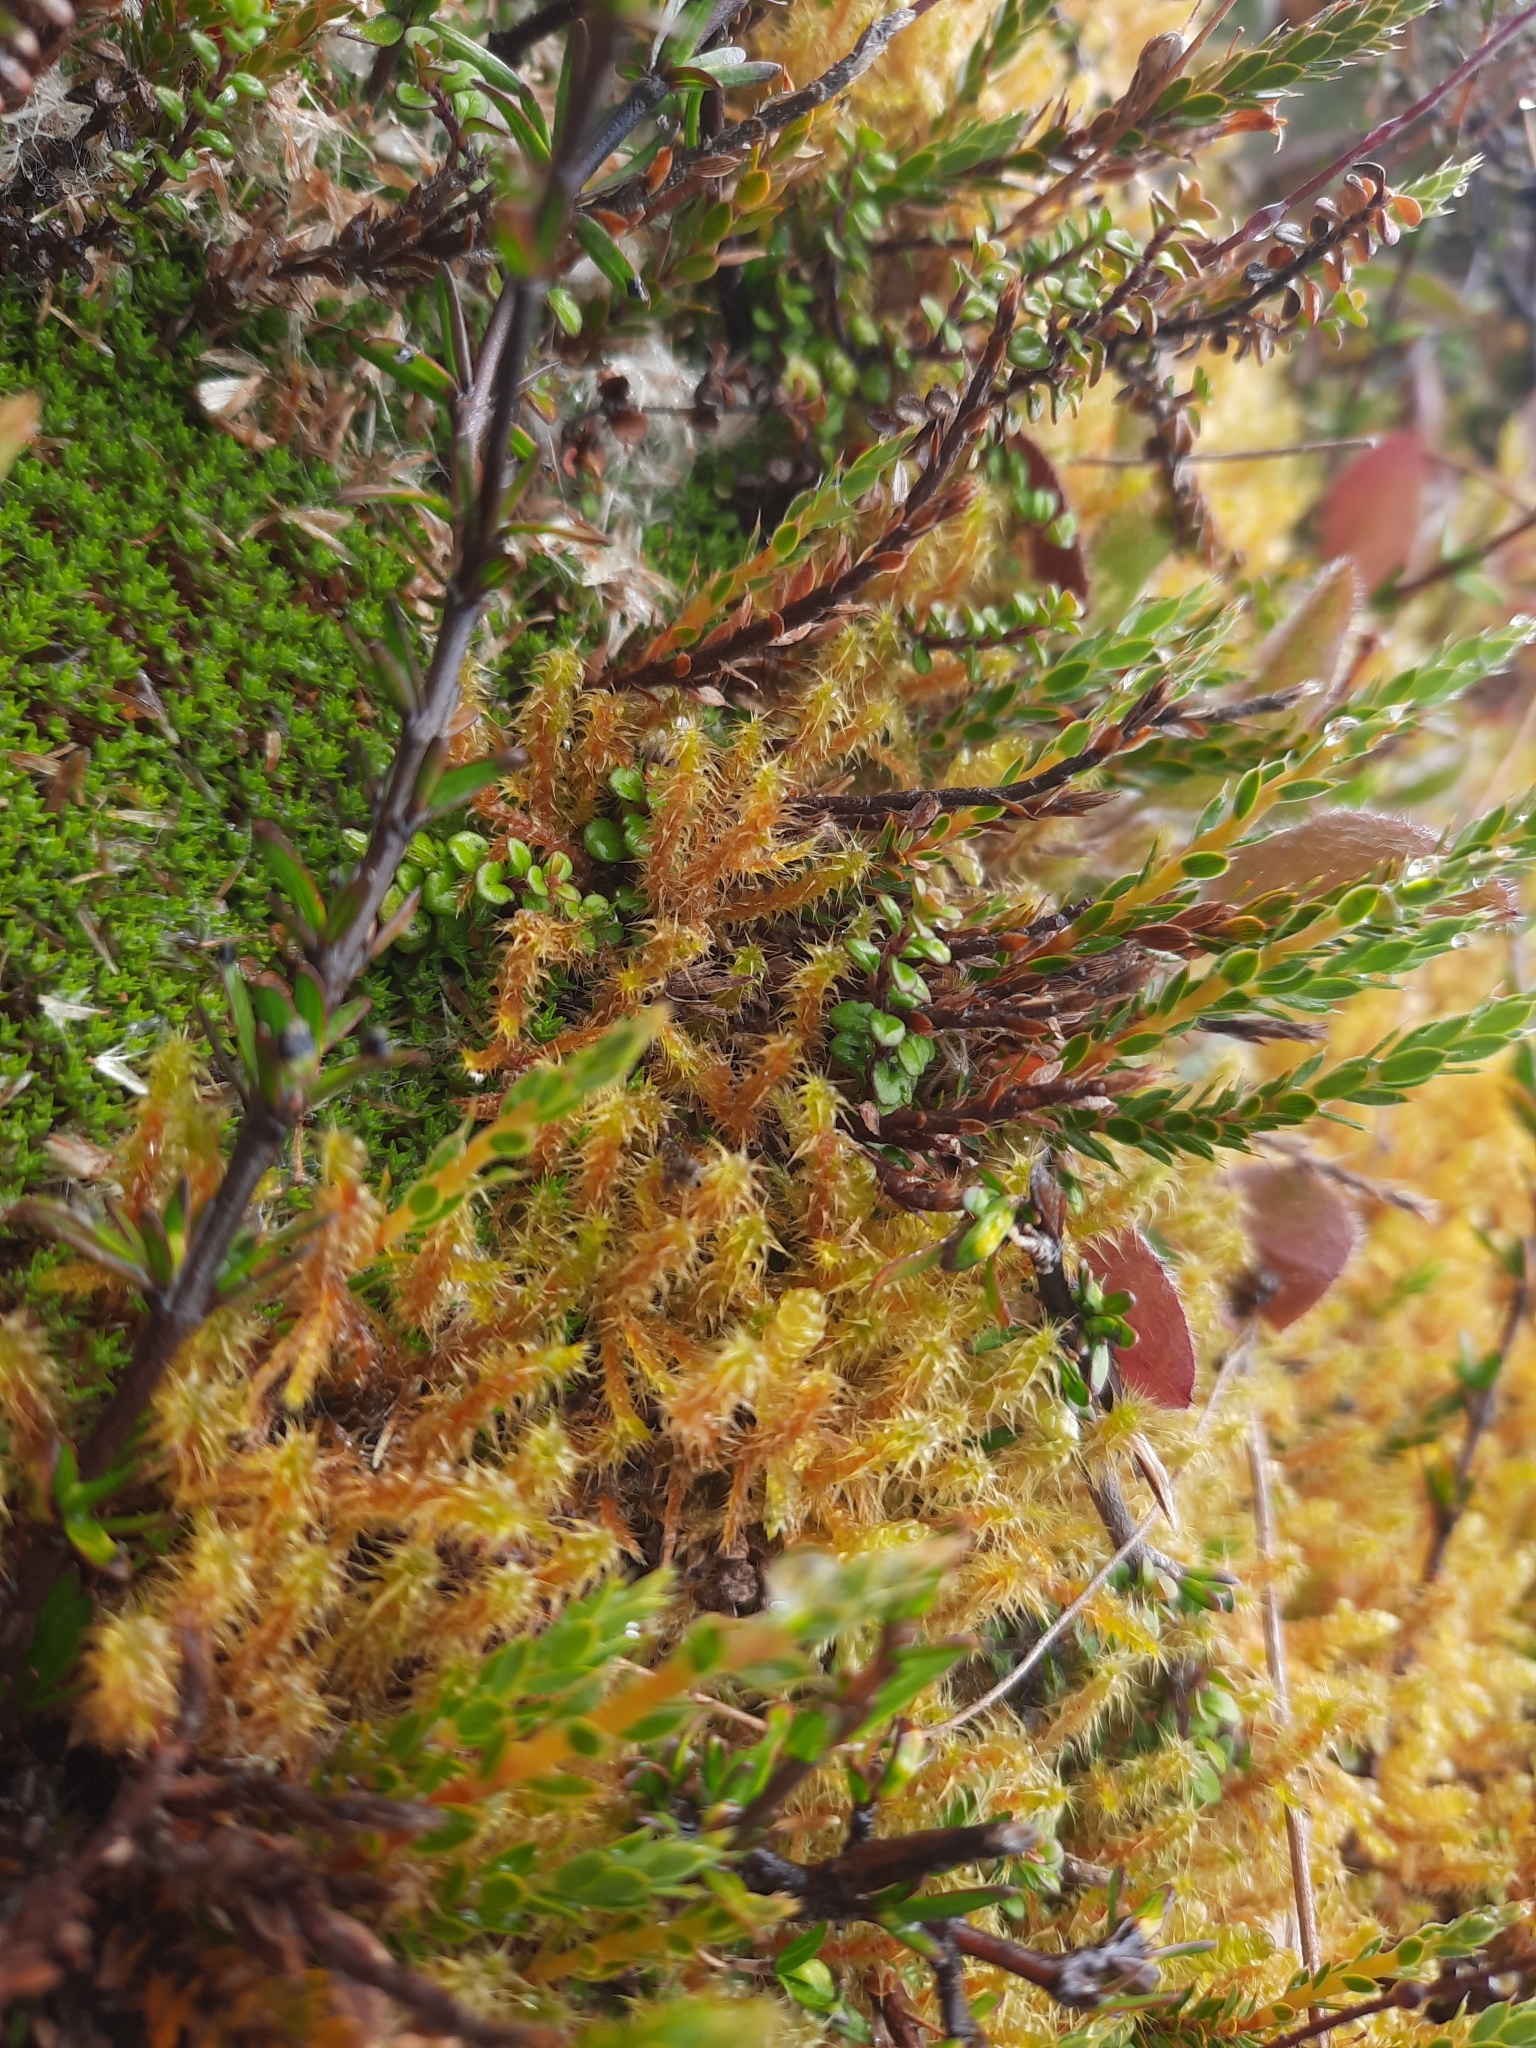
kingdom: Plantae
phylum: Bryophyta
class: Bryopsida
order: Hypnales
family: Hylocomiaceae
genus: Rhytidiadelphus
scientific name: Rhytidiadelphus squarrosus
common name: Springy turf-moss
